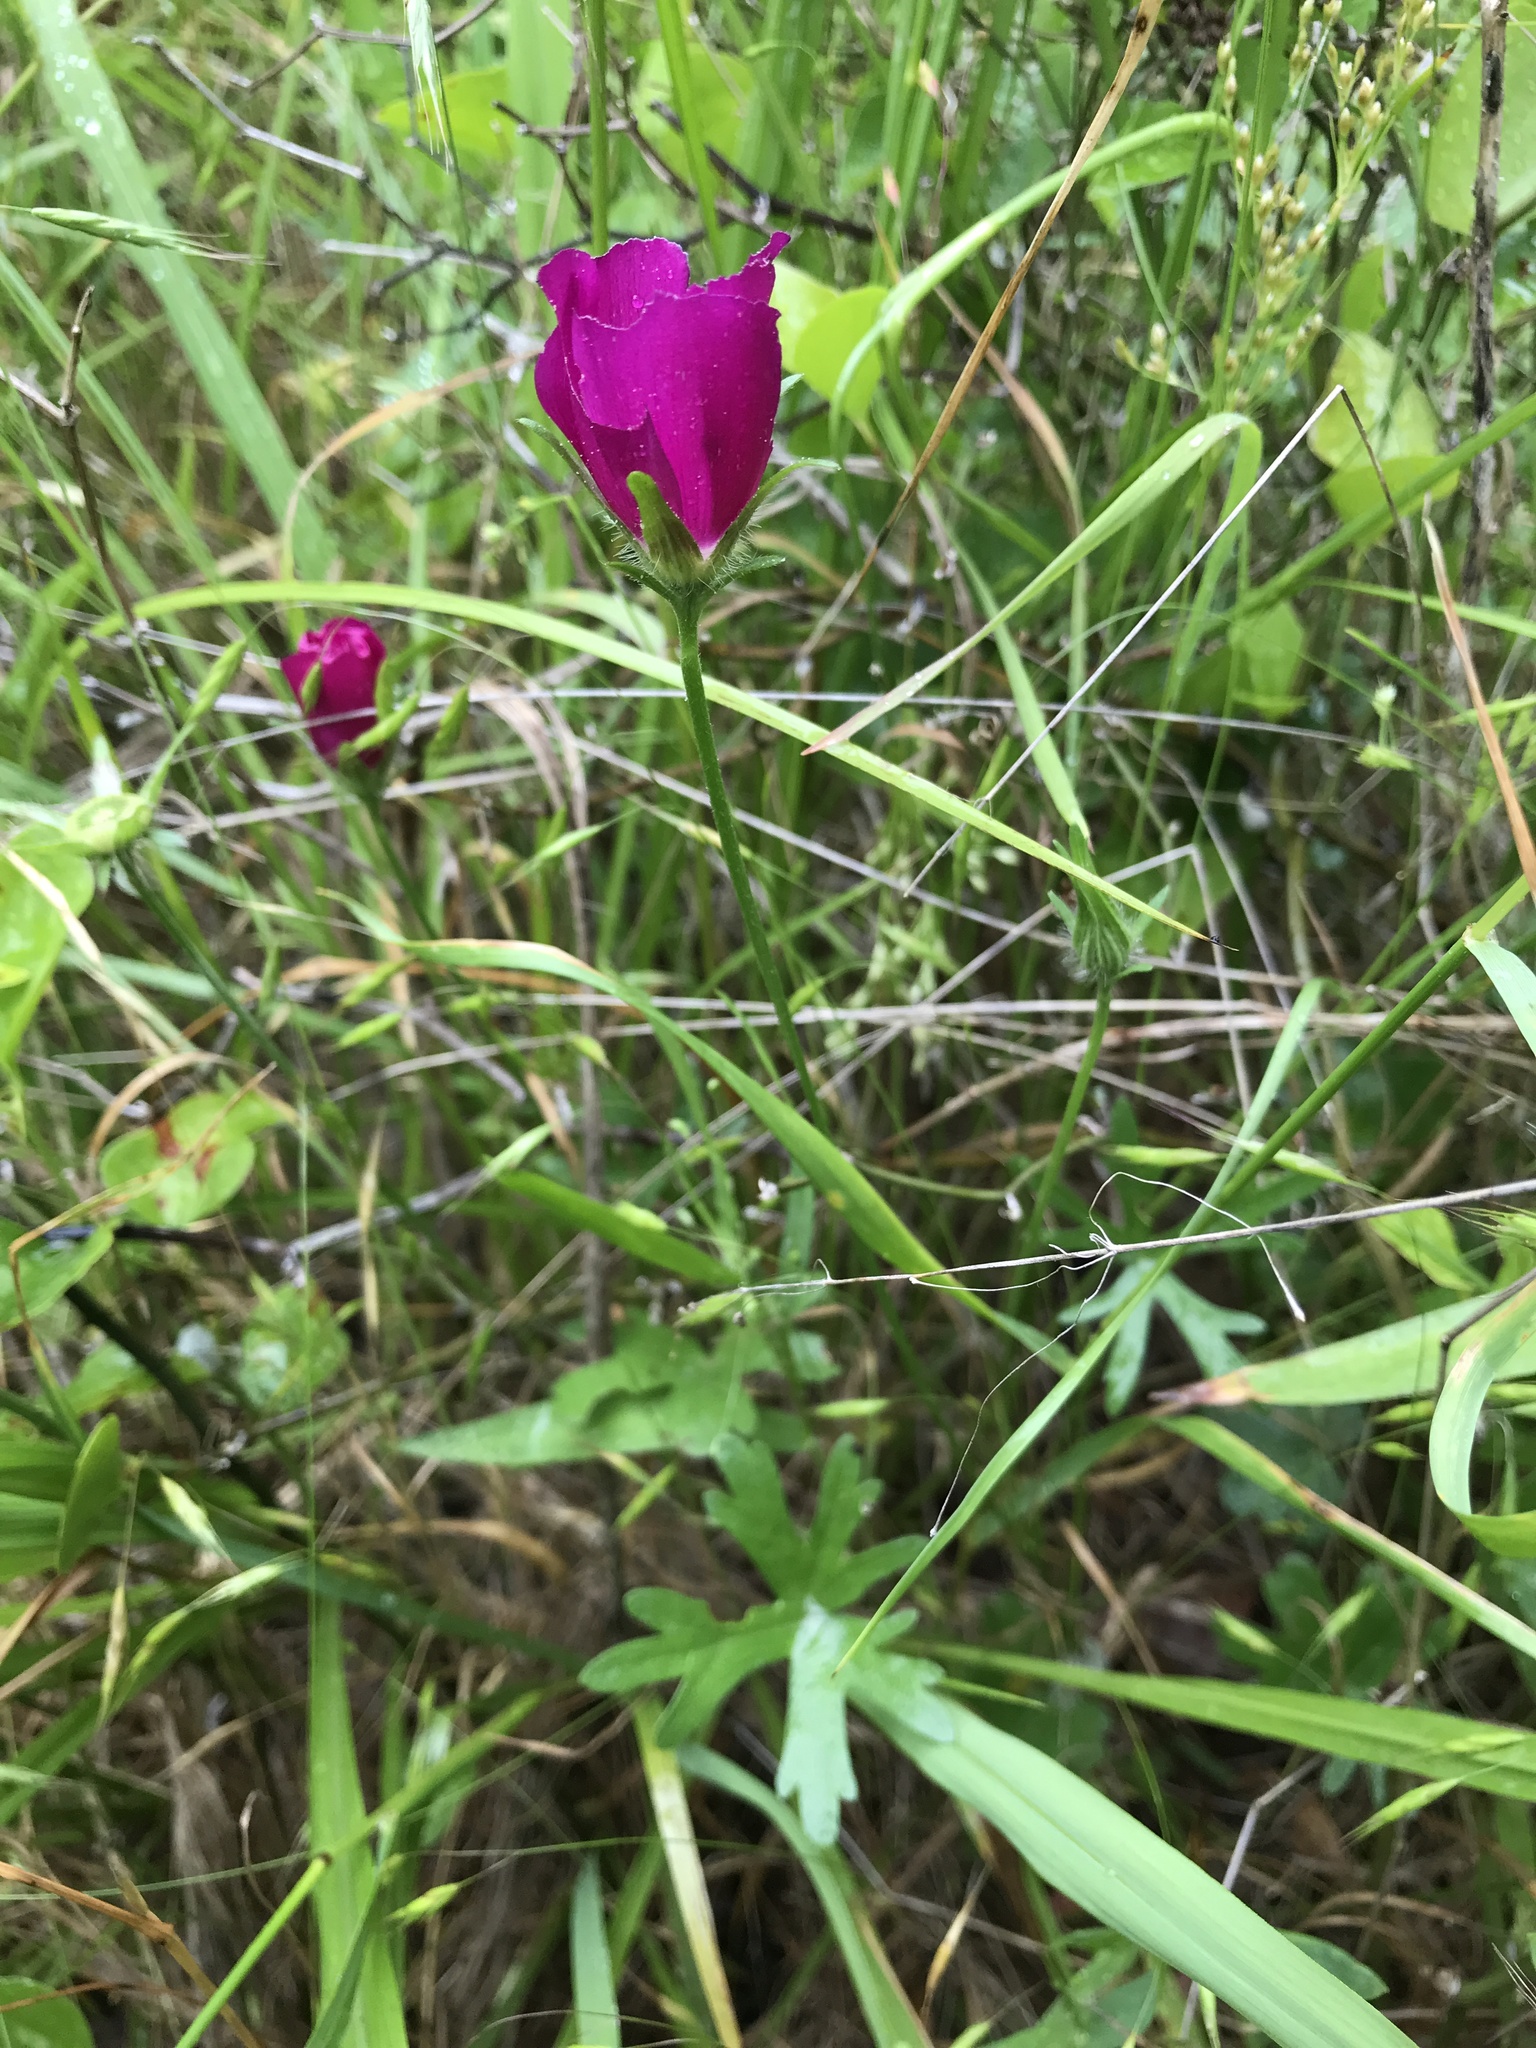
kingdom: Plantae
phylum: Tracheophyta
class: Magnoliopsida
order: Malvales
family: Malvaceae
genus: Callirhoe
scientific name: Callirhoe involucrata
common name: Purple poppy-mallow
